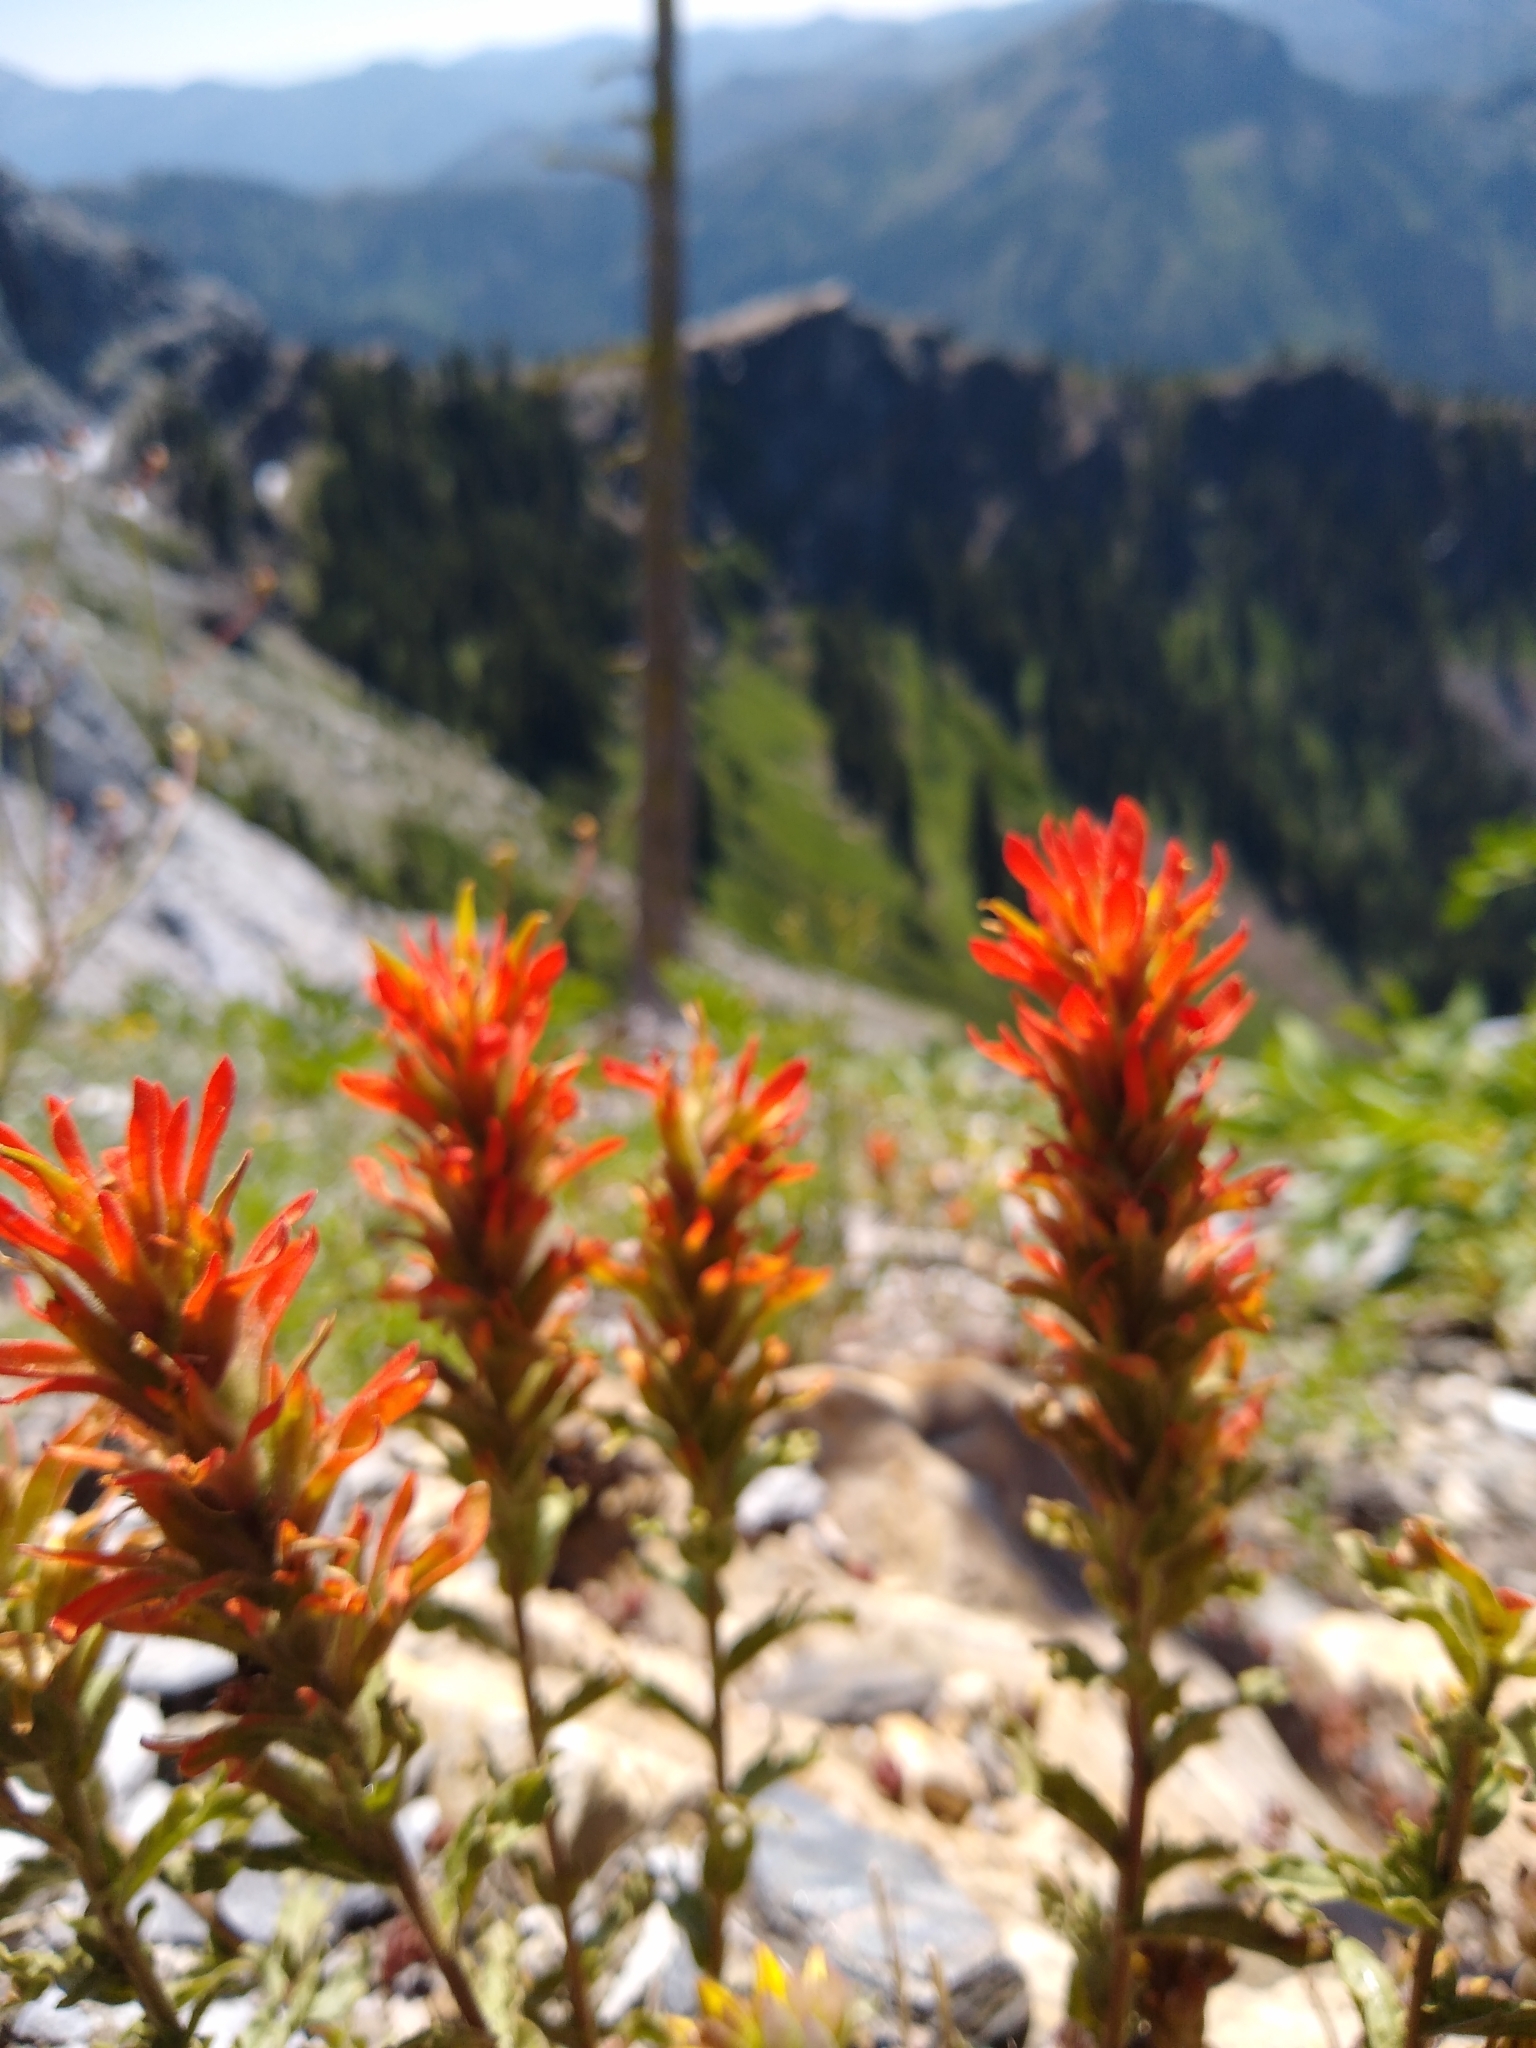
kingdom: Plantae
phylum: Tracheophyta
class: Magnoliopsida
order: Lamiales
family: Orobanchaceae
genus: Castilleja
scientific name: Castilleja applegatei
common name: Wavy-leaf paintbrush
